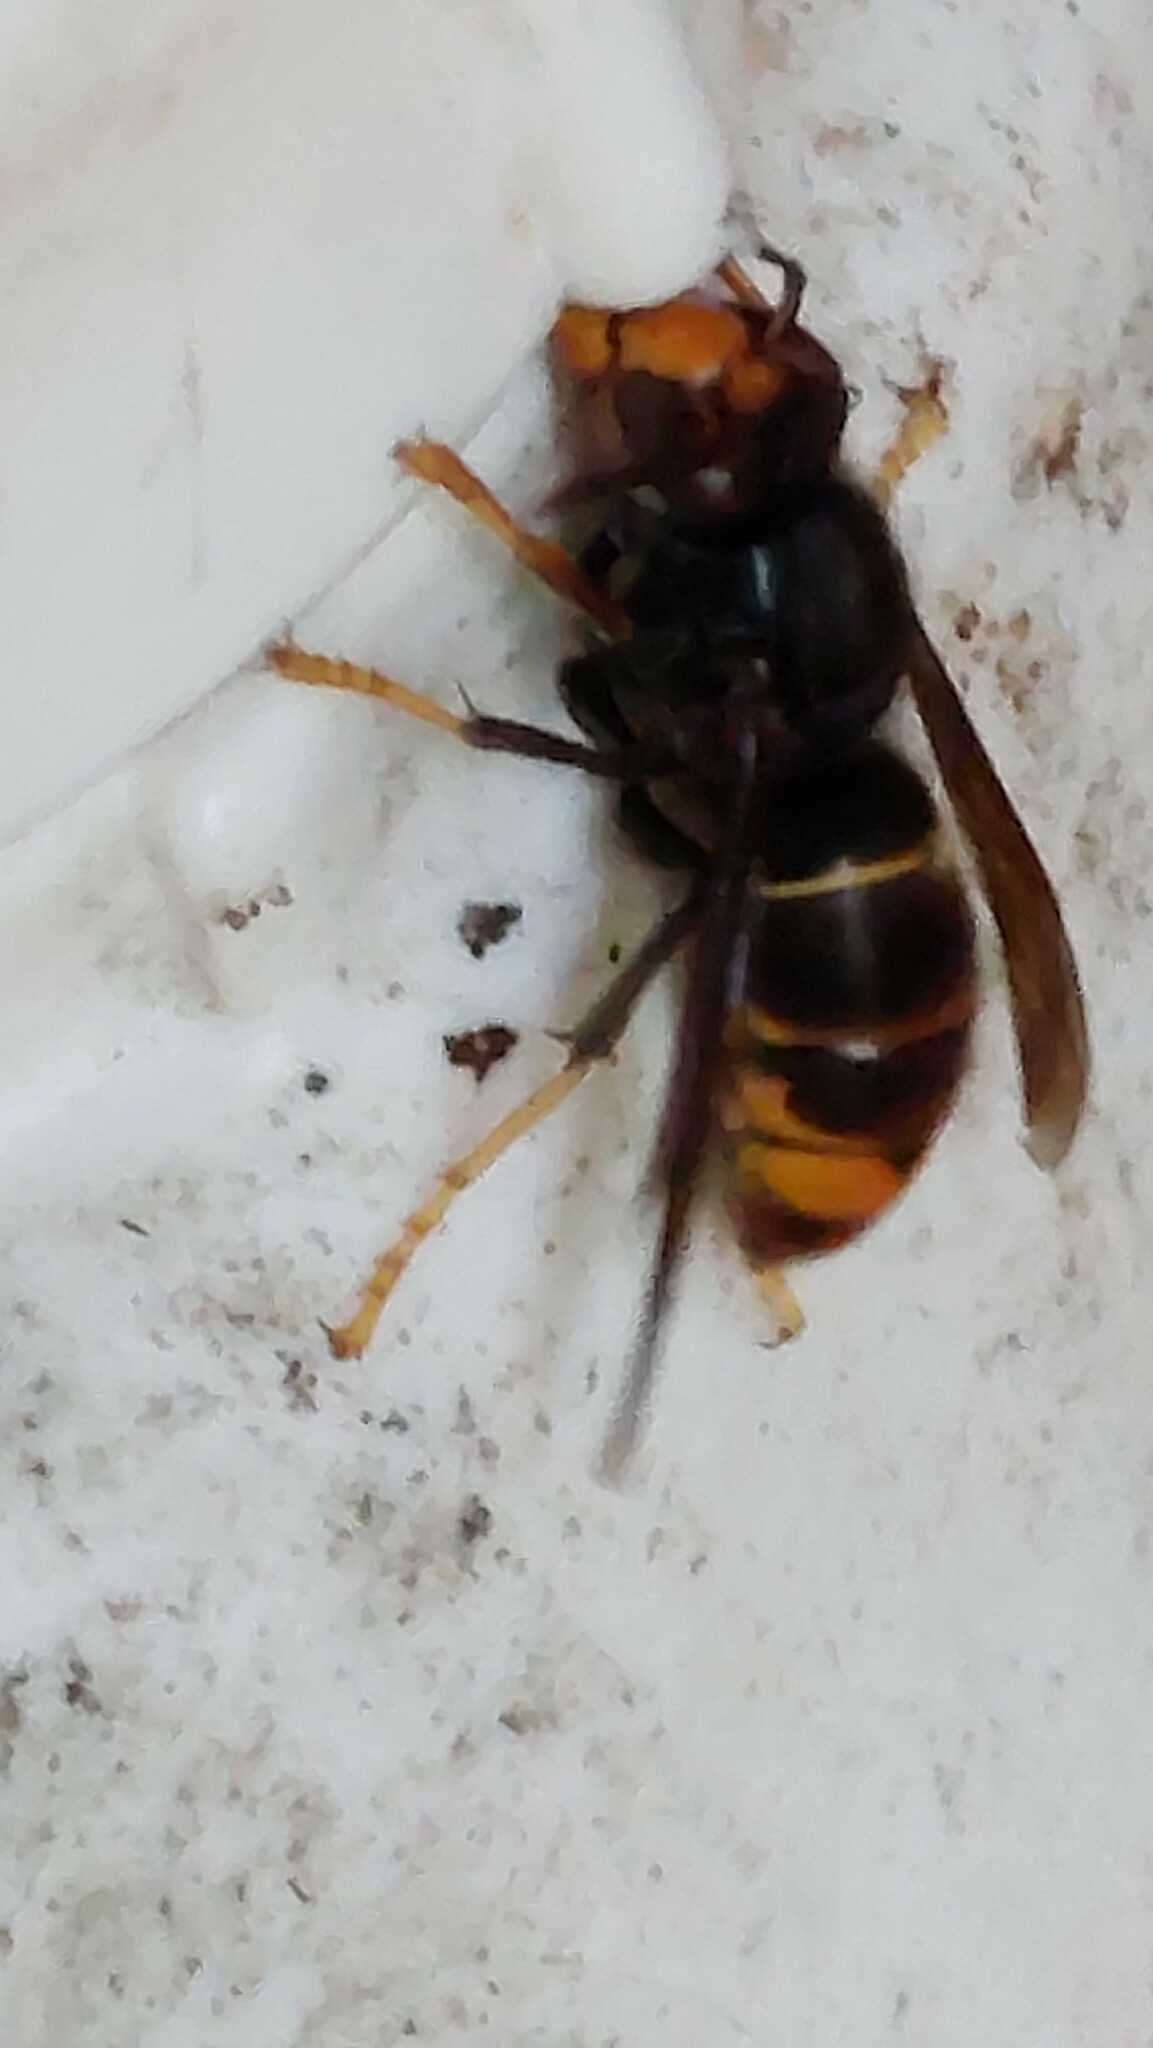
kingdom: Animalia
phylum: Arthropoda
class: Insecta
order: Hymenoptera
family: Vespidae
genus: Vespa
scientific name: Vespa velutina
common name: Asian hornet
